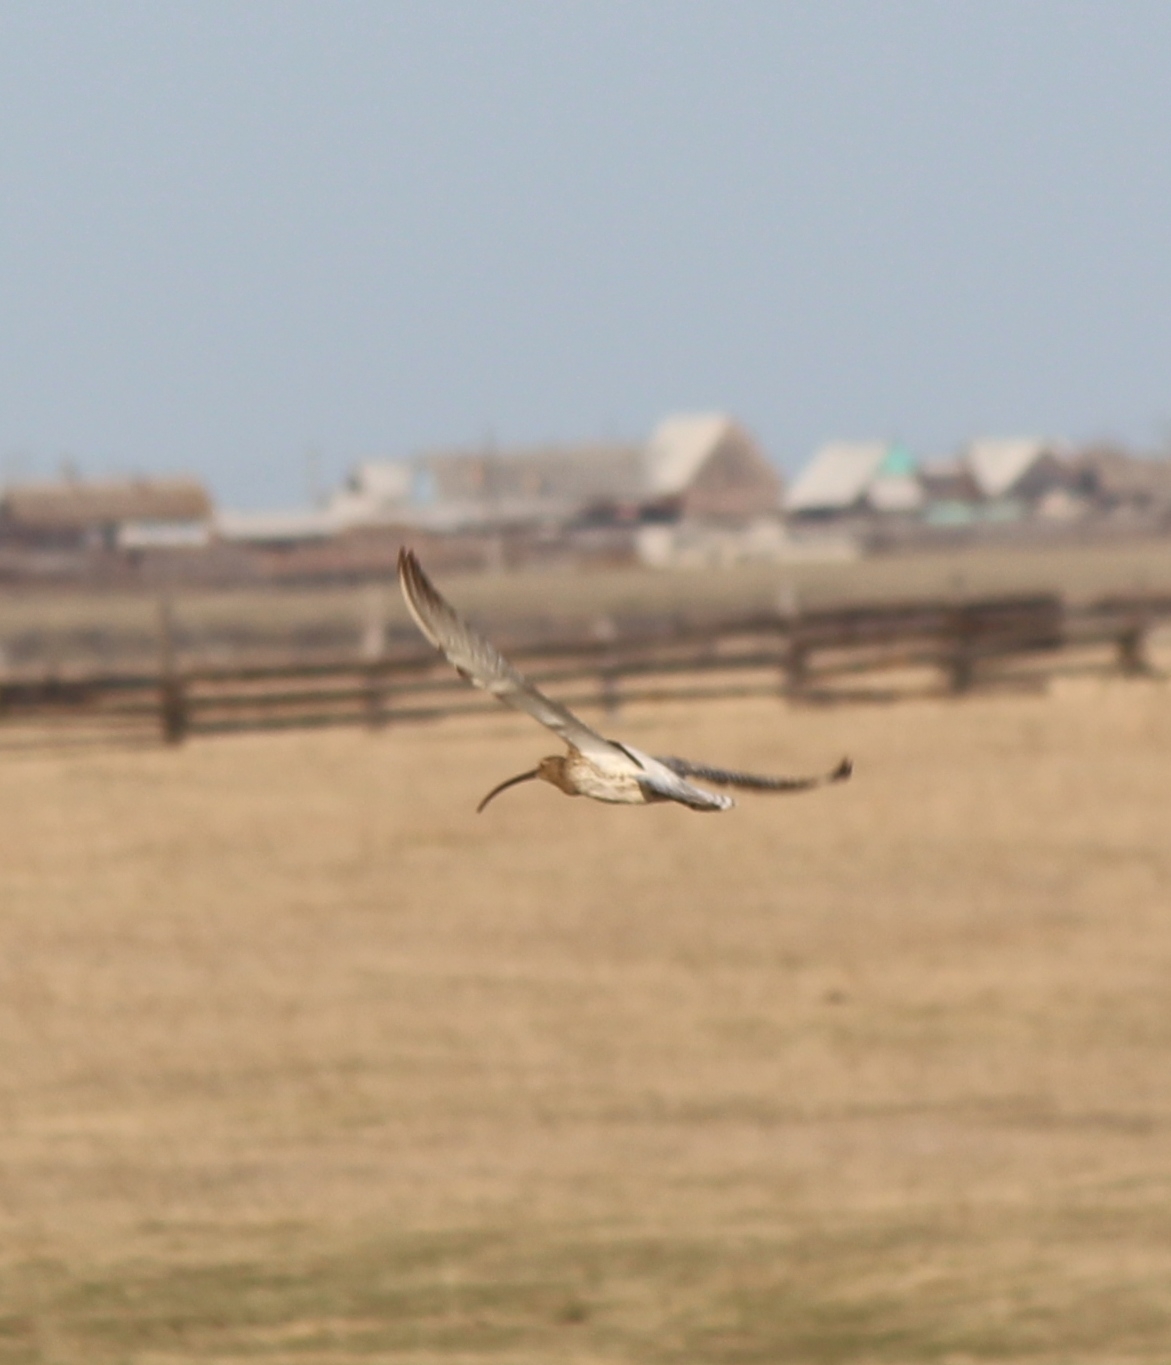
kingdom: Animalia
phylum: Chordata
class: Aves
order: Charadriiformes
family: Scolopacidae
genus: Numenius
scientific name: Numenius arquata
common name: Eurasian curlew
